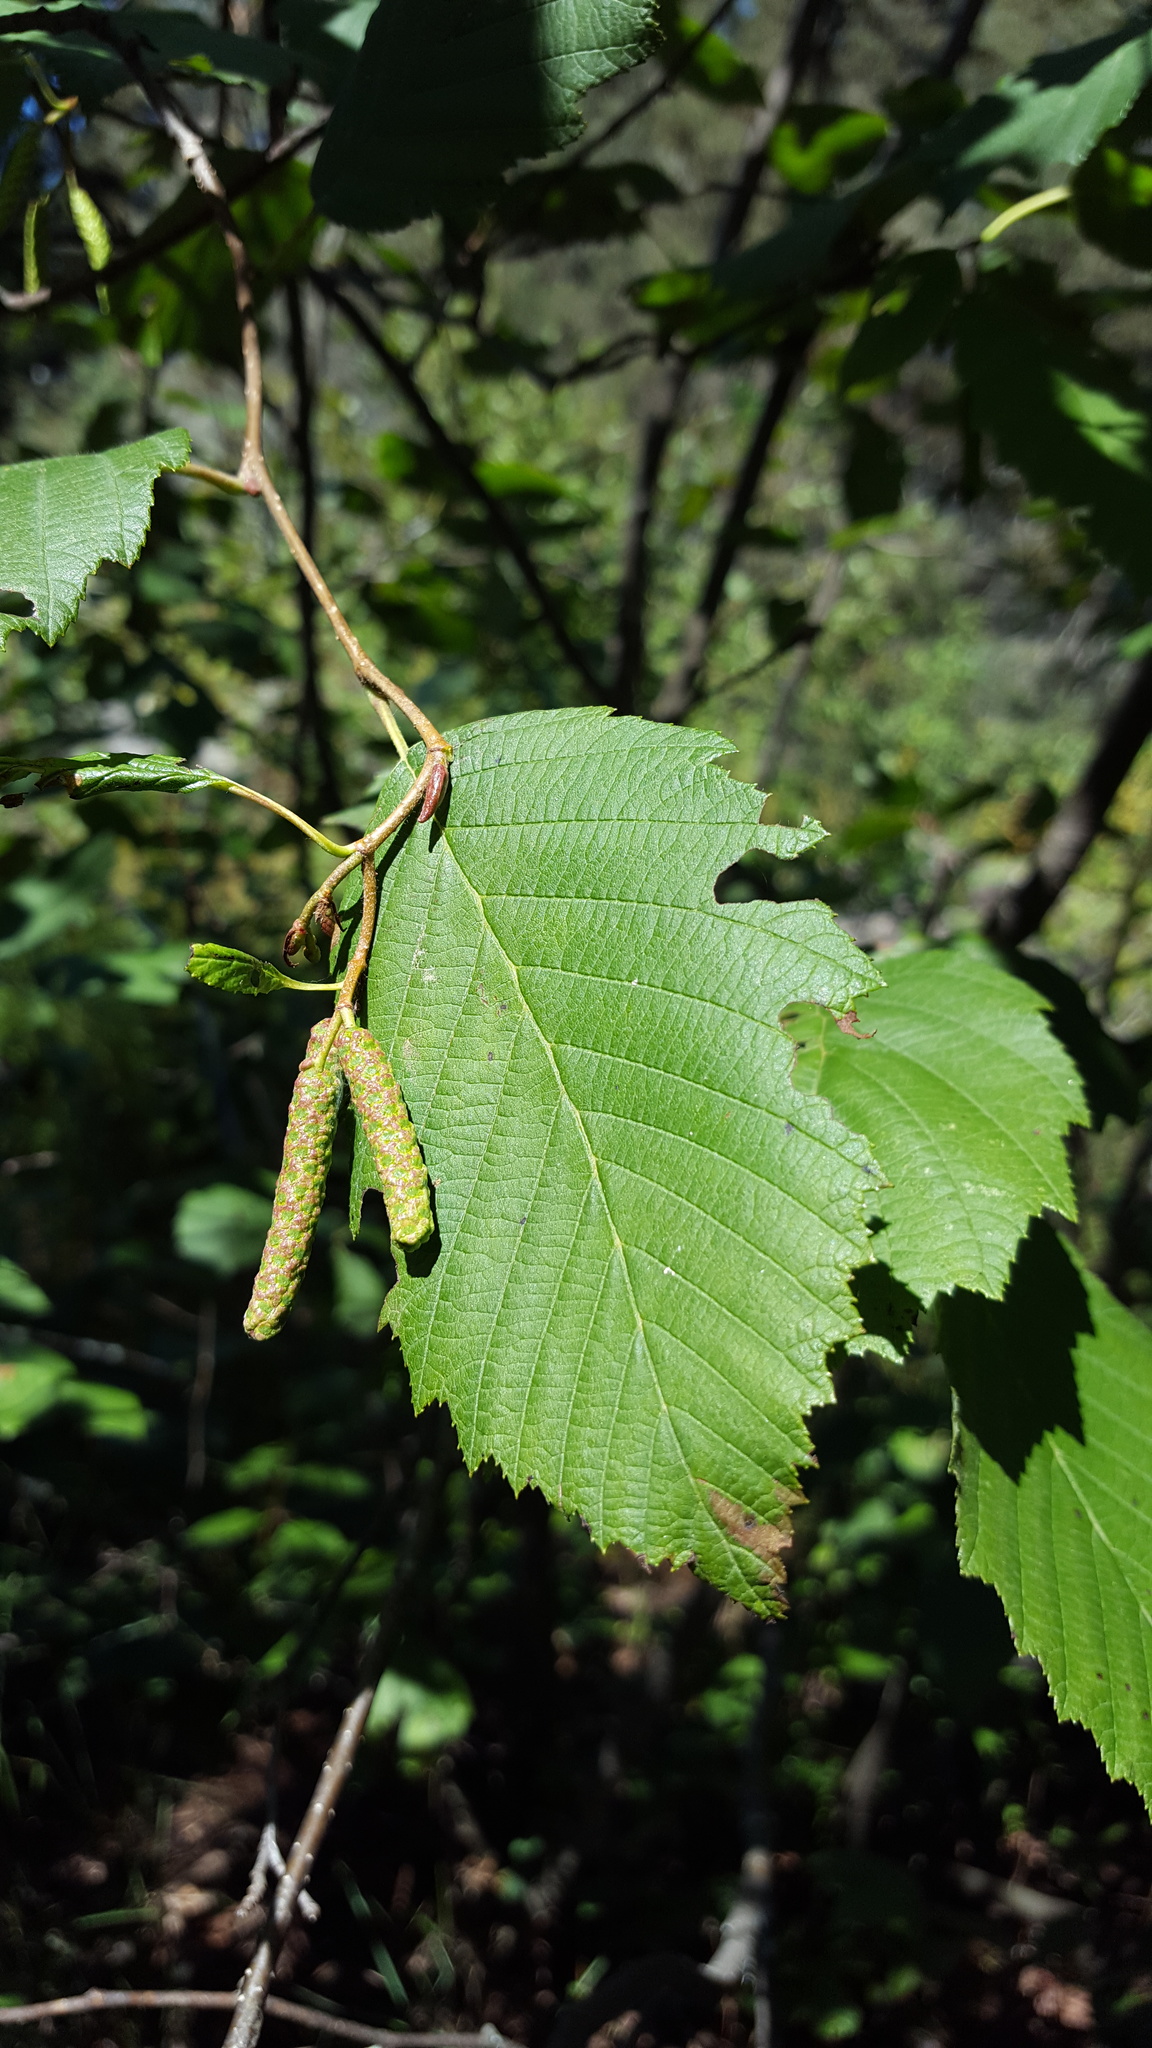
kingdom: Plantae
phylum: Tracheophyta
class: Magnoliopsida
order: Fagales
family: Betulaceae
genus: Alnus
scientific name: Alnus incana
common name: Grey alder
